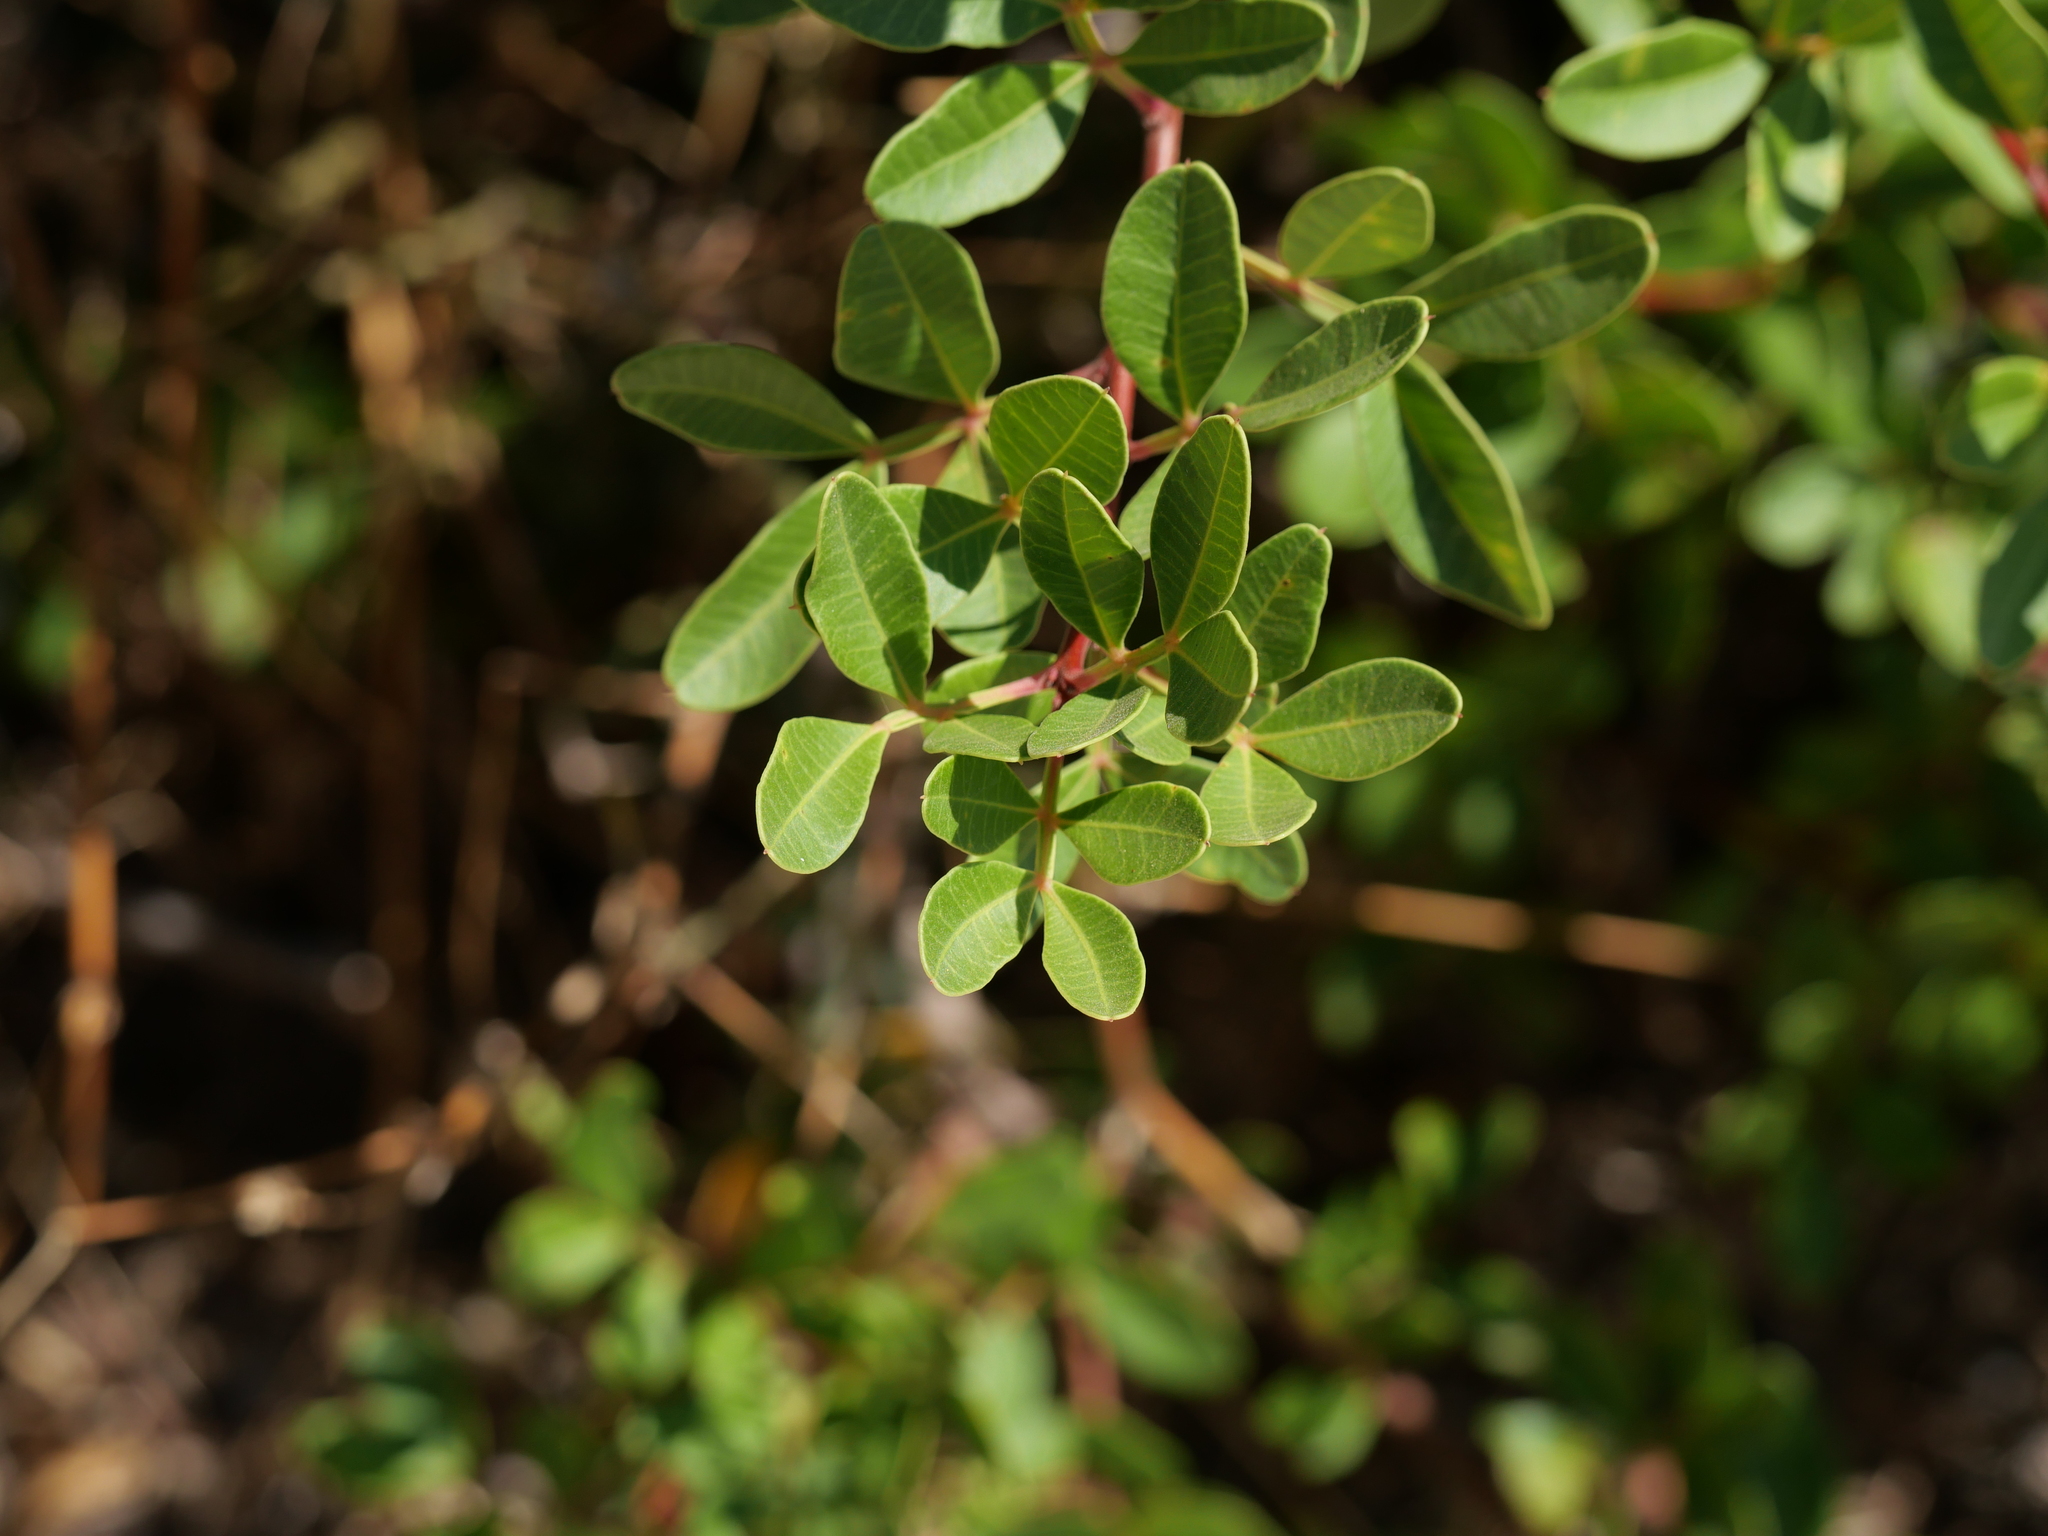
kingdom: Plantae
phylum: Tracheophyta
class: Magnoliopsida
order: Sapindales
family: Anacardiaceae
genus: Pistacia
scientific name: Pistacia lentiscus
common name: Lentisk
